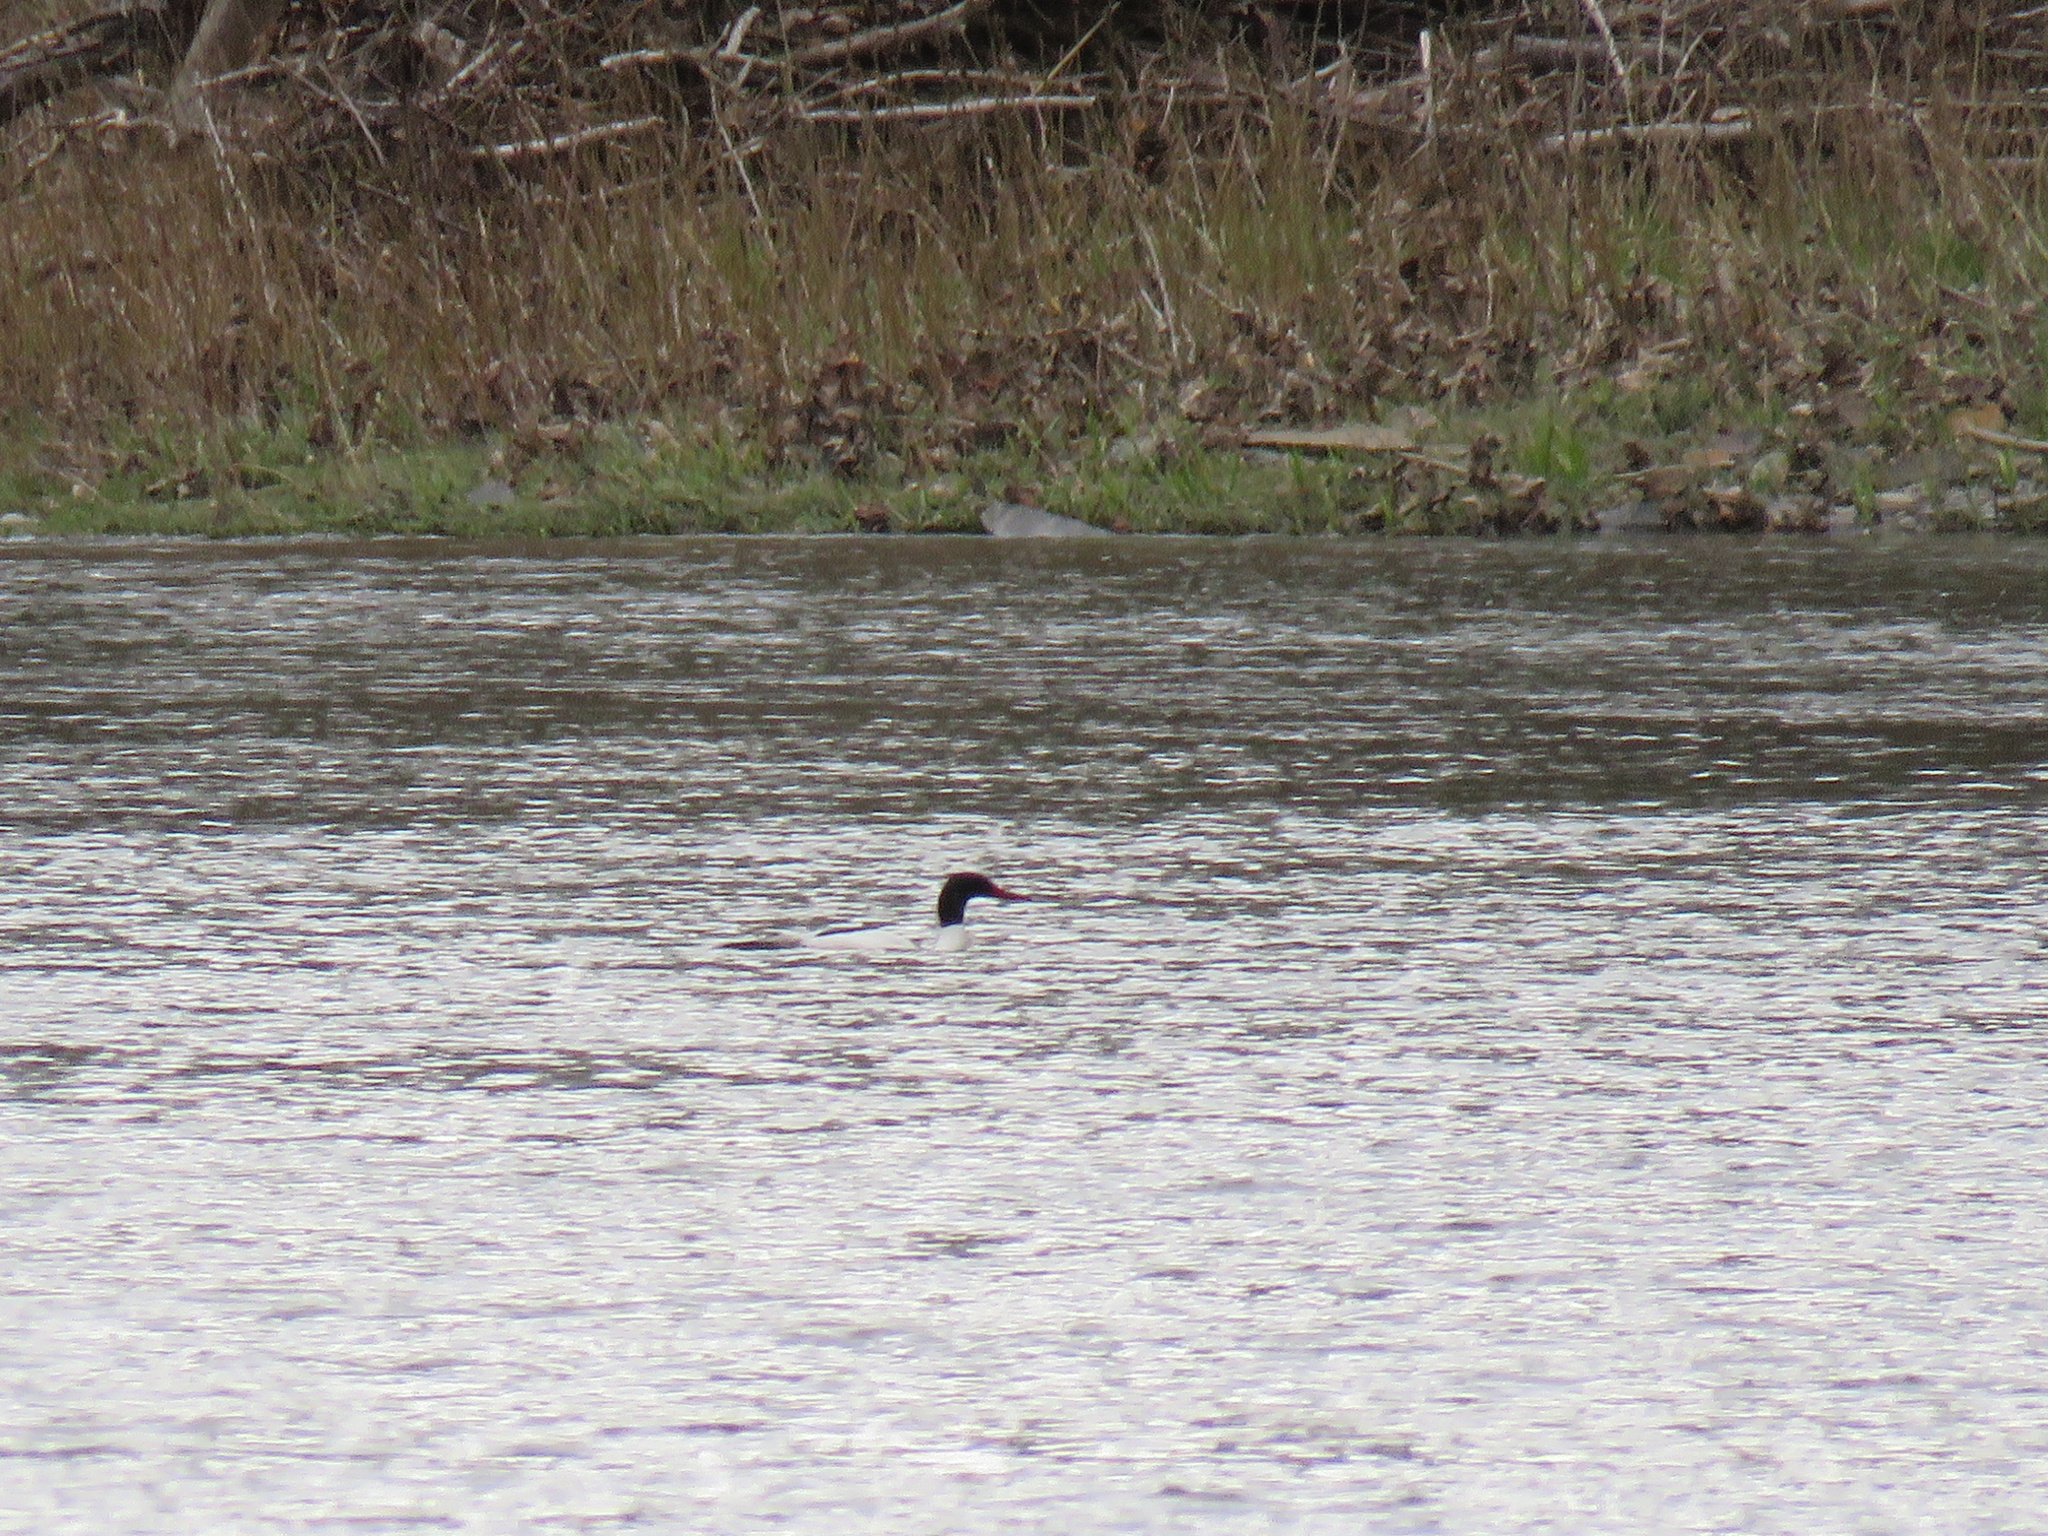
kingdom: Animalia
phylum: Chordata
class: Aves
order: Anseriformes
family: Anatidae
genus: Mergus
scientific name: Mergus merganser
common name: Common merganser
